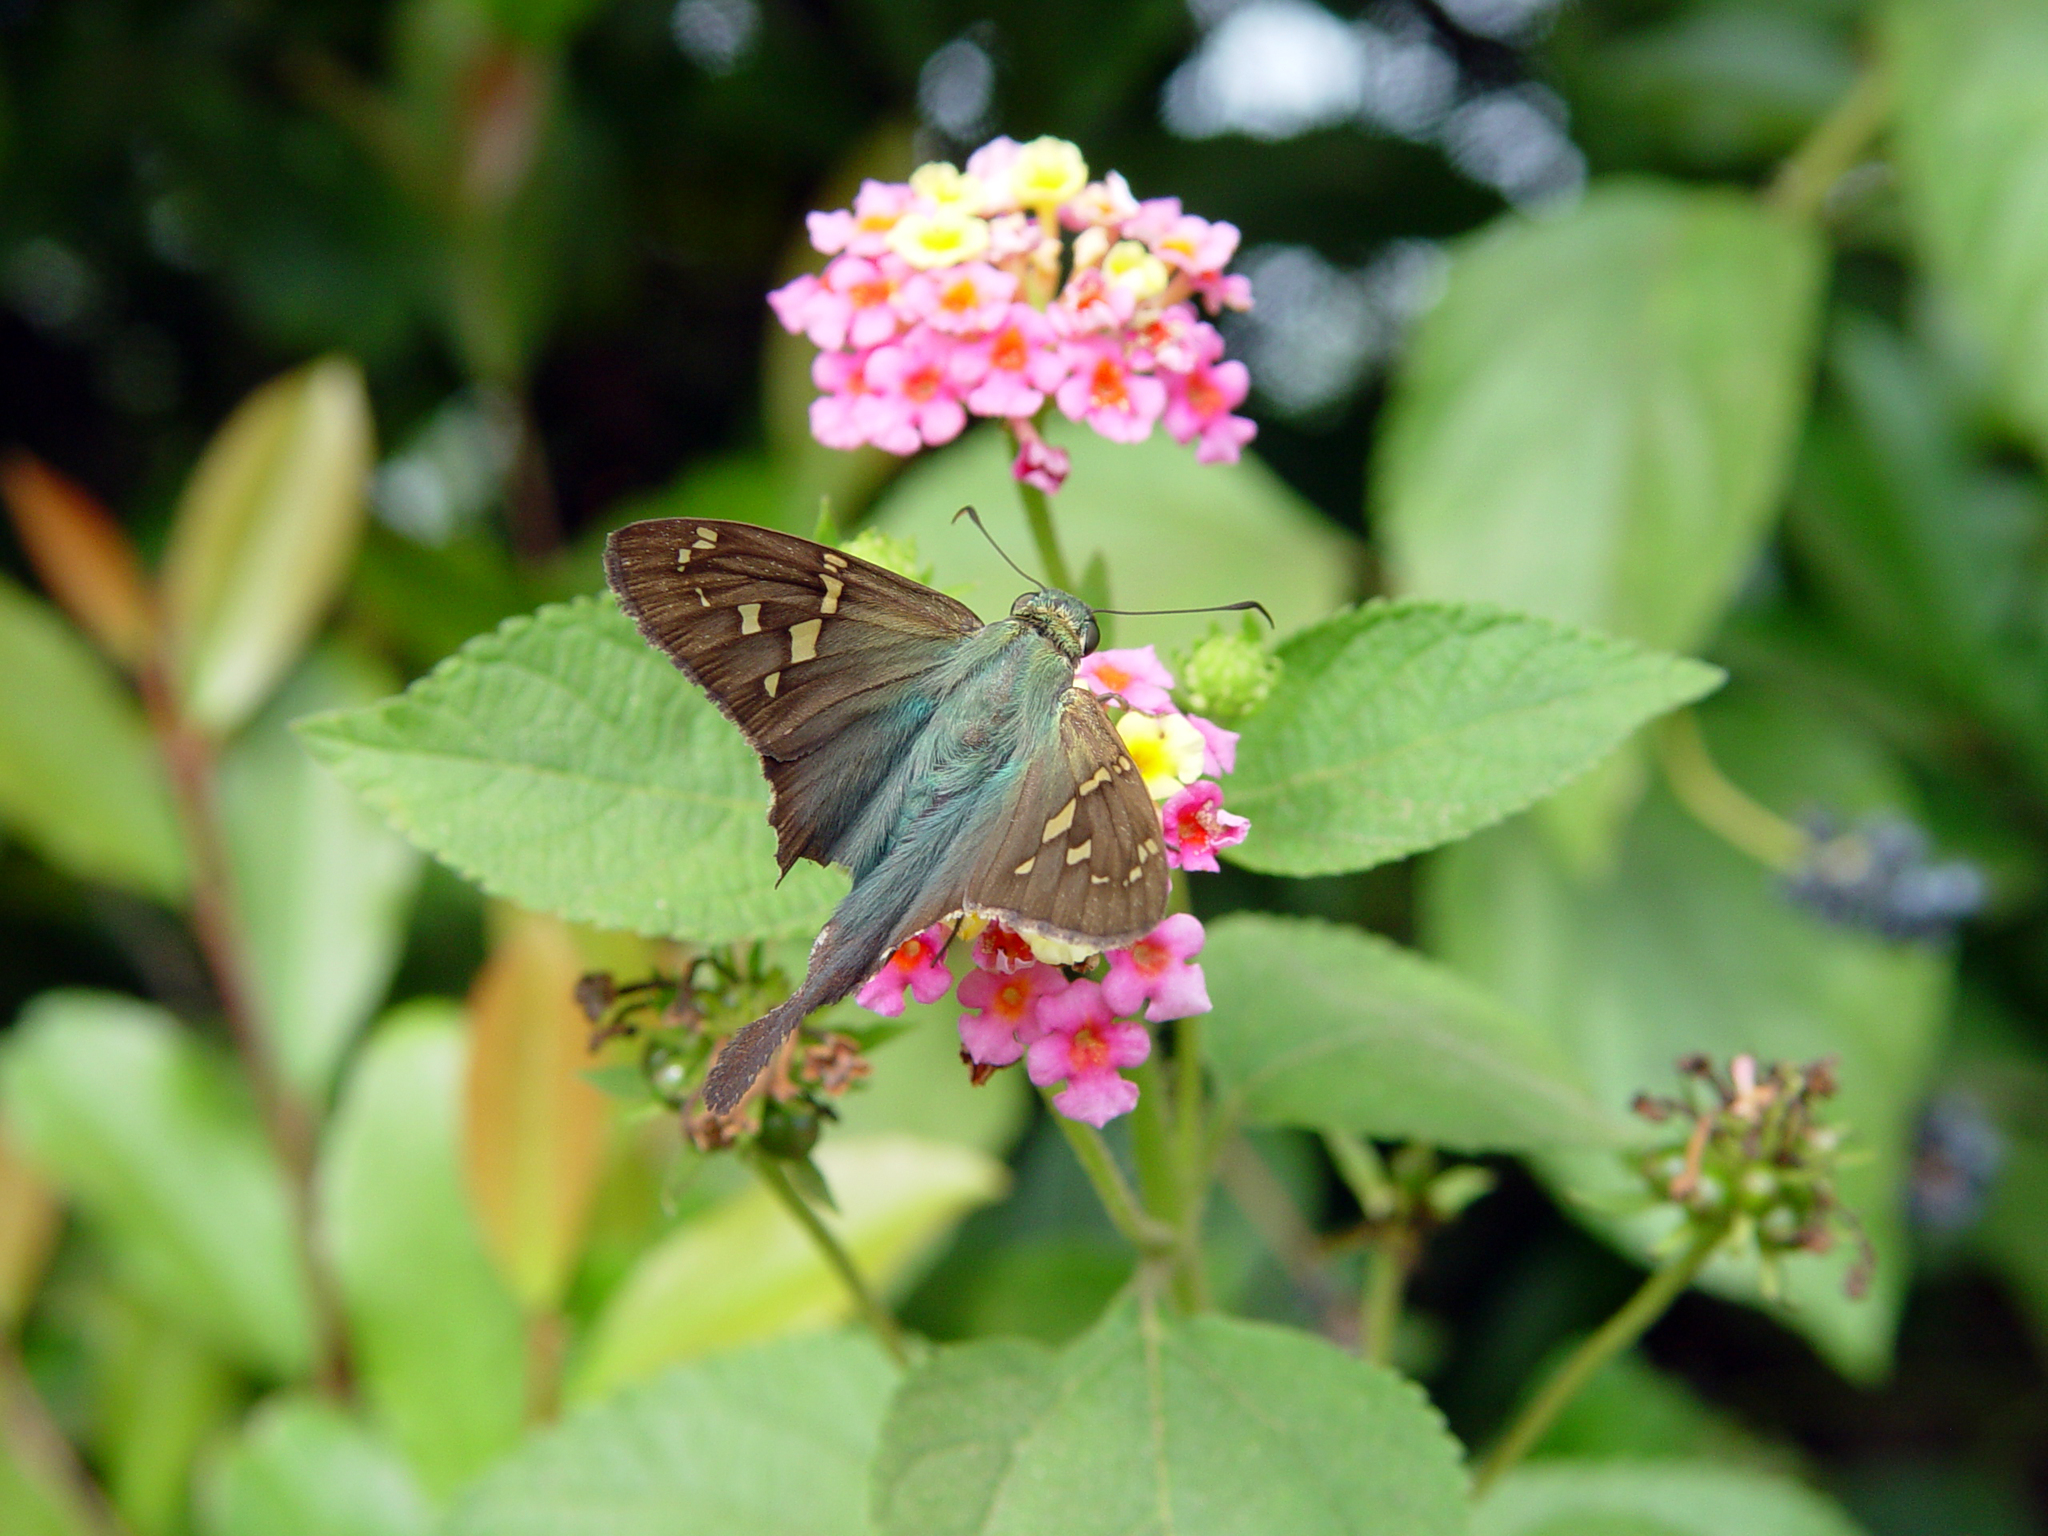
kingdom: Animalia
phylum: Arthropoda
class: Insecta
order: Lepidoptera
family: Hesperiidae
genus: Urbanus
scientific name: Urbanus proteus
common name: Long-tailed skipper
